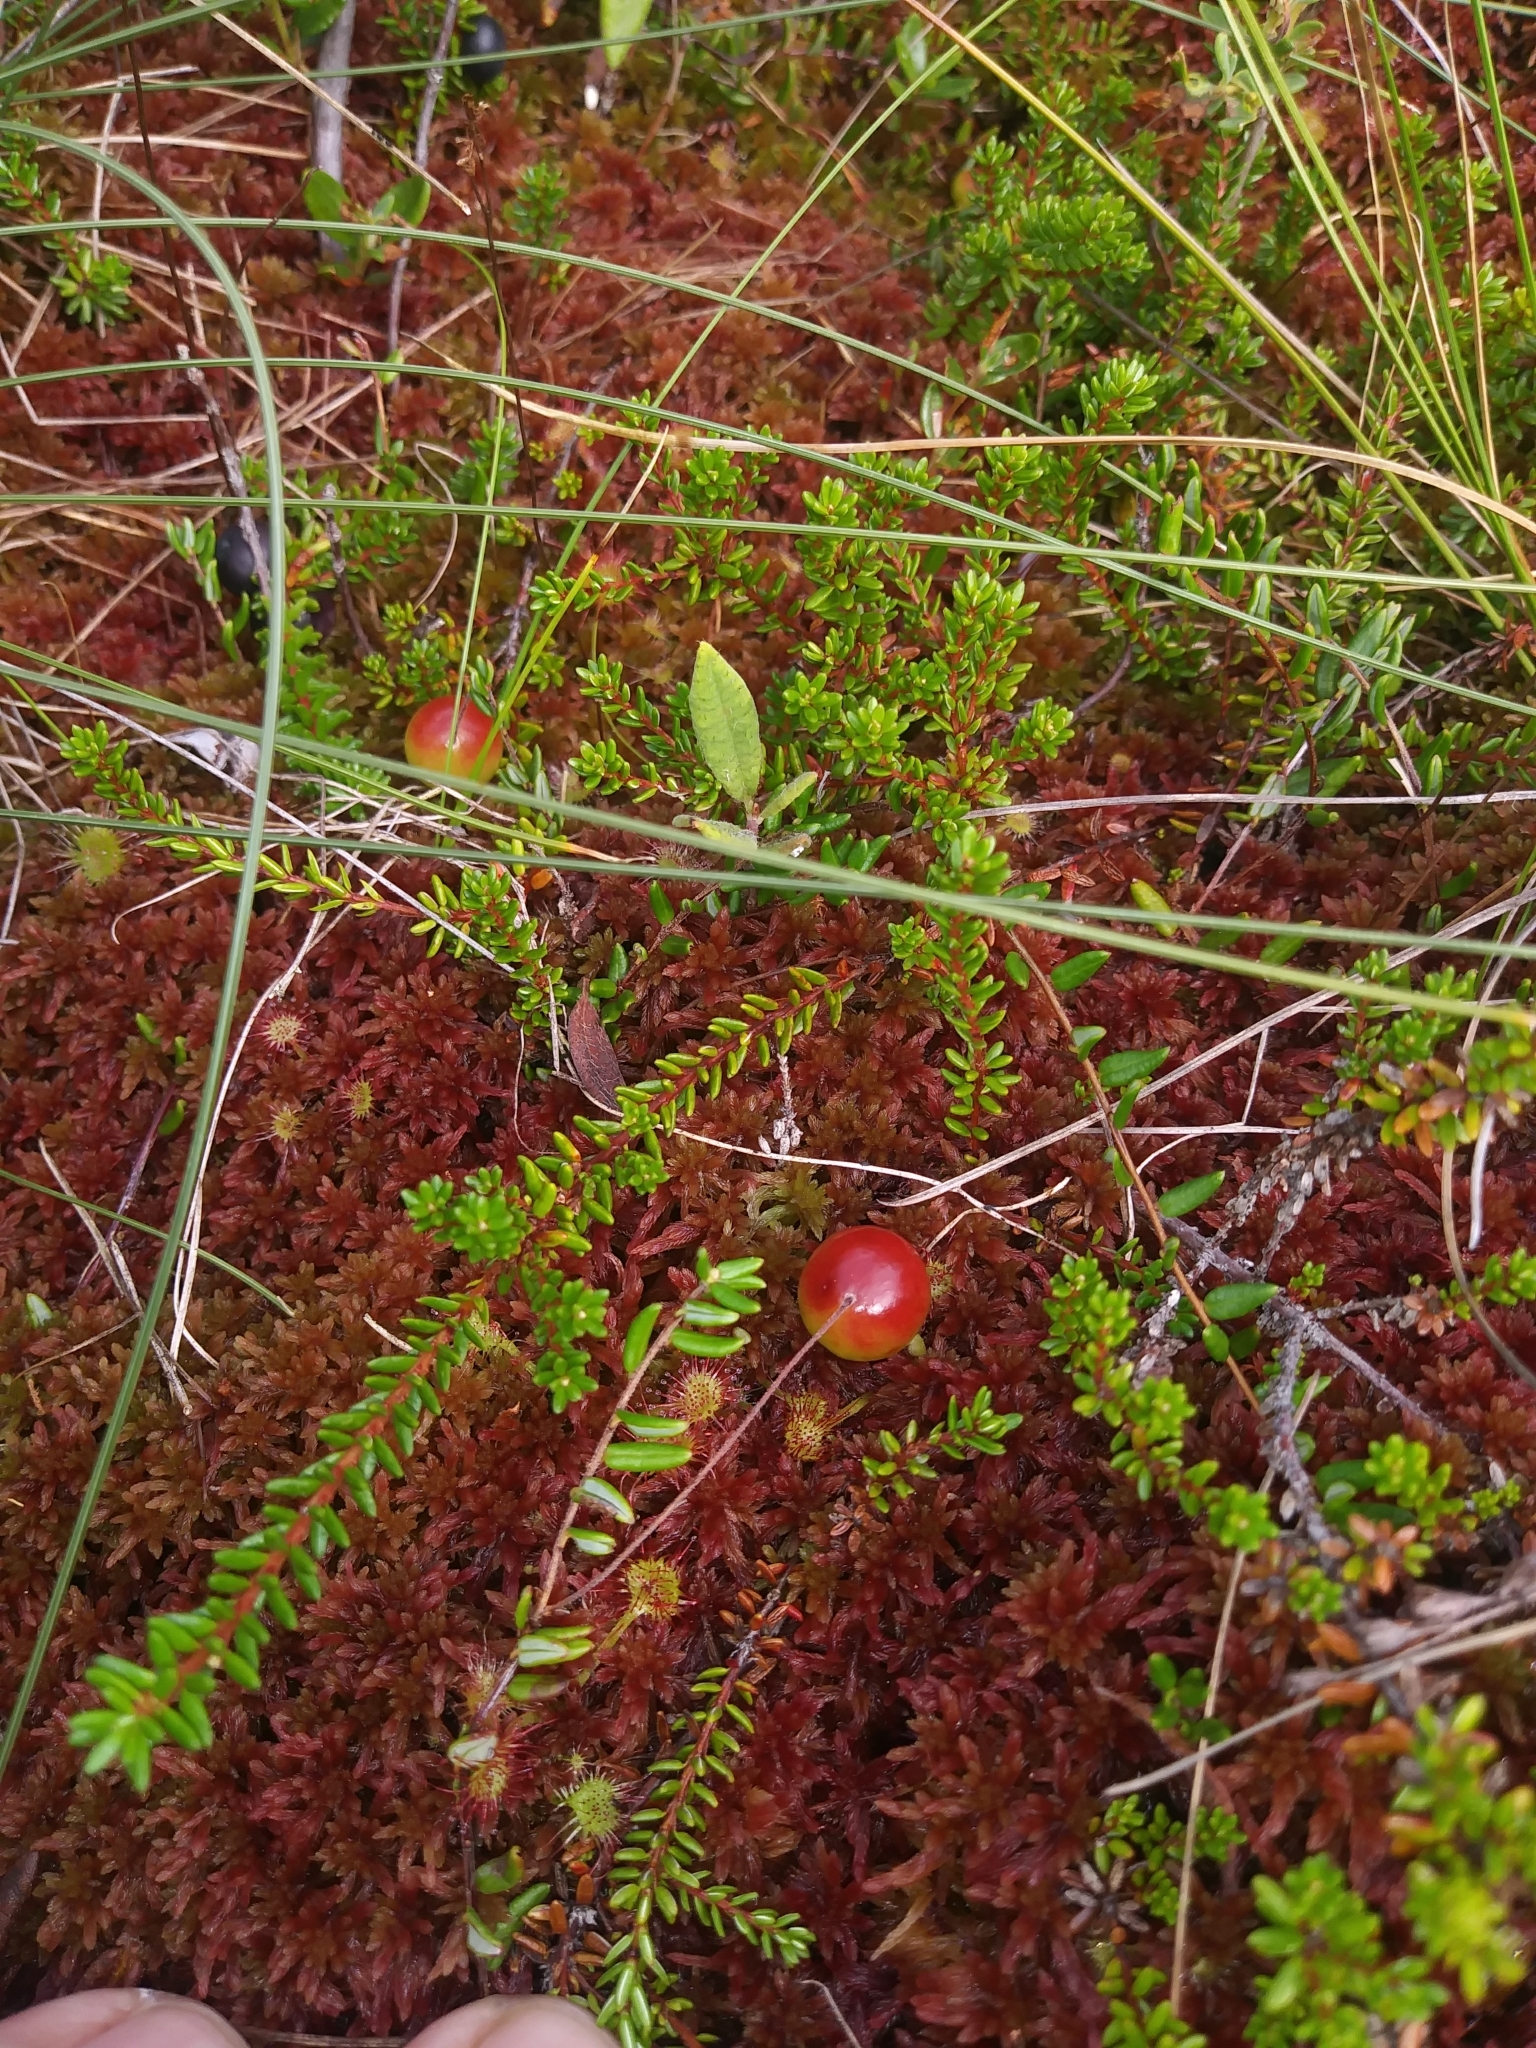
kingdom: Plantae
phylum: Tracheophyta
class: Magnoliopsida
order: Caryophyllales
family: Droseraceae
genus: Drosera
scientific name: Drosera rotundifolia
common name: Round-leaved sundew
